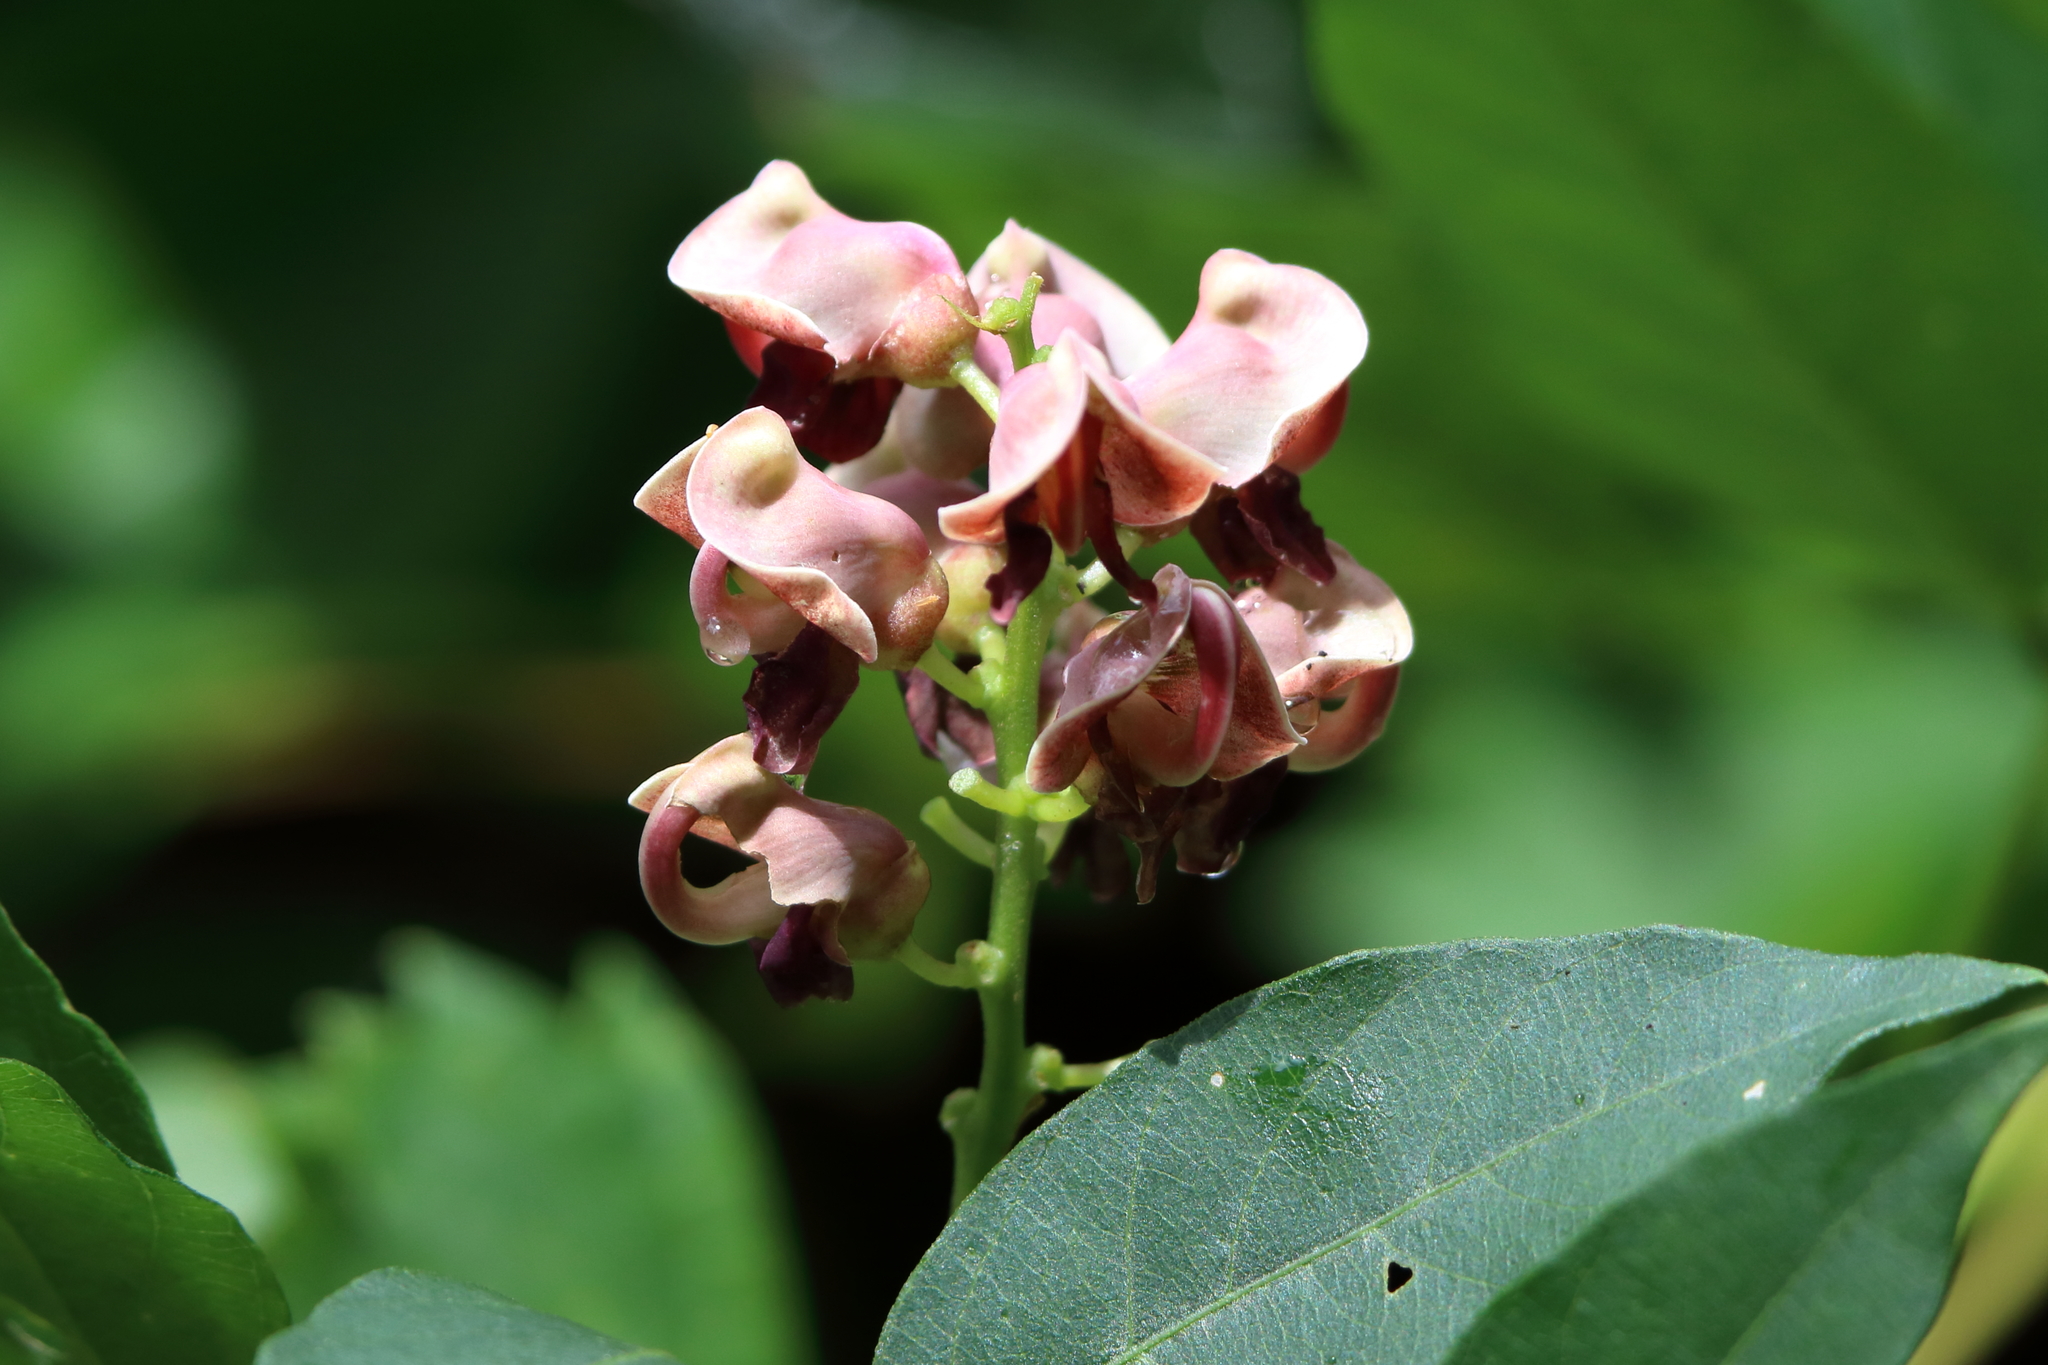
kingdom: Plantae
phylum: Tracheophyta
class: Magnoliopsida
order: Fabales
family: Fabaceae
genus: Apios
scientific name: Apios americana
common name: American potato-bean
